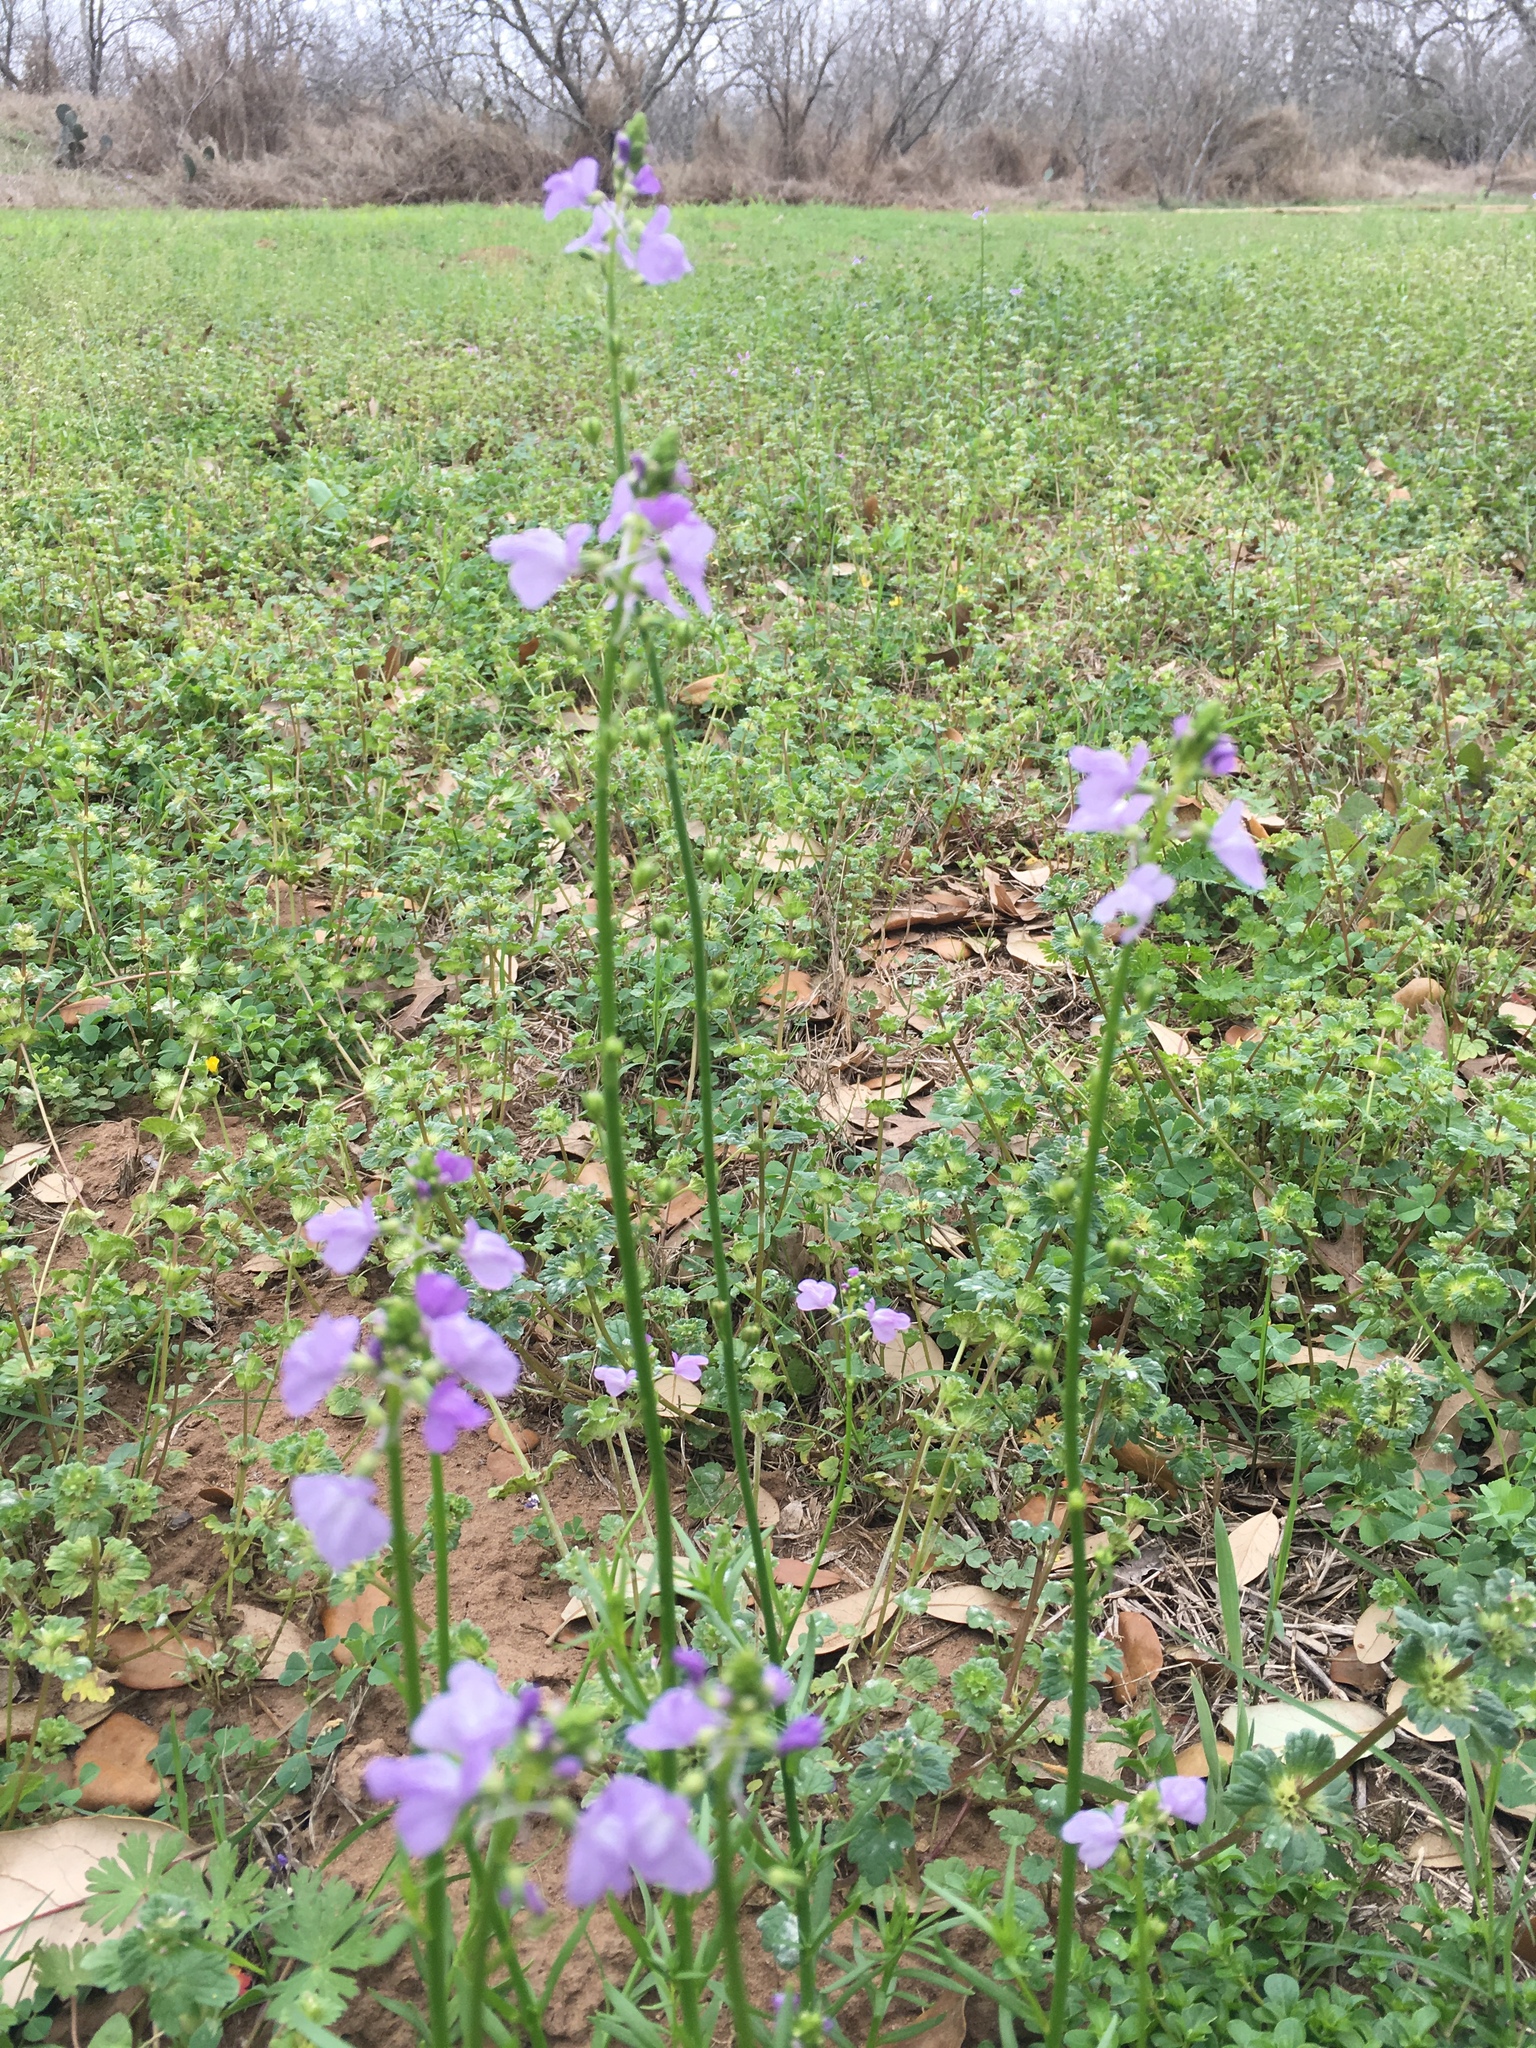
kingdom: Plantae
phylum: Tracheophyta
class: Magnoliopsida
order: Lamiales
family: Plantaginaceae
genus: Nuttallanthus
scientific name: Nuttallanthus texanus
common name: Texas toadflax
